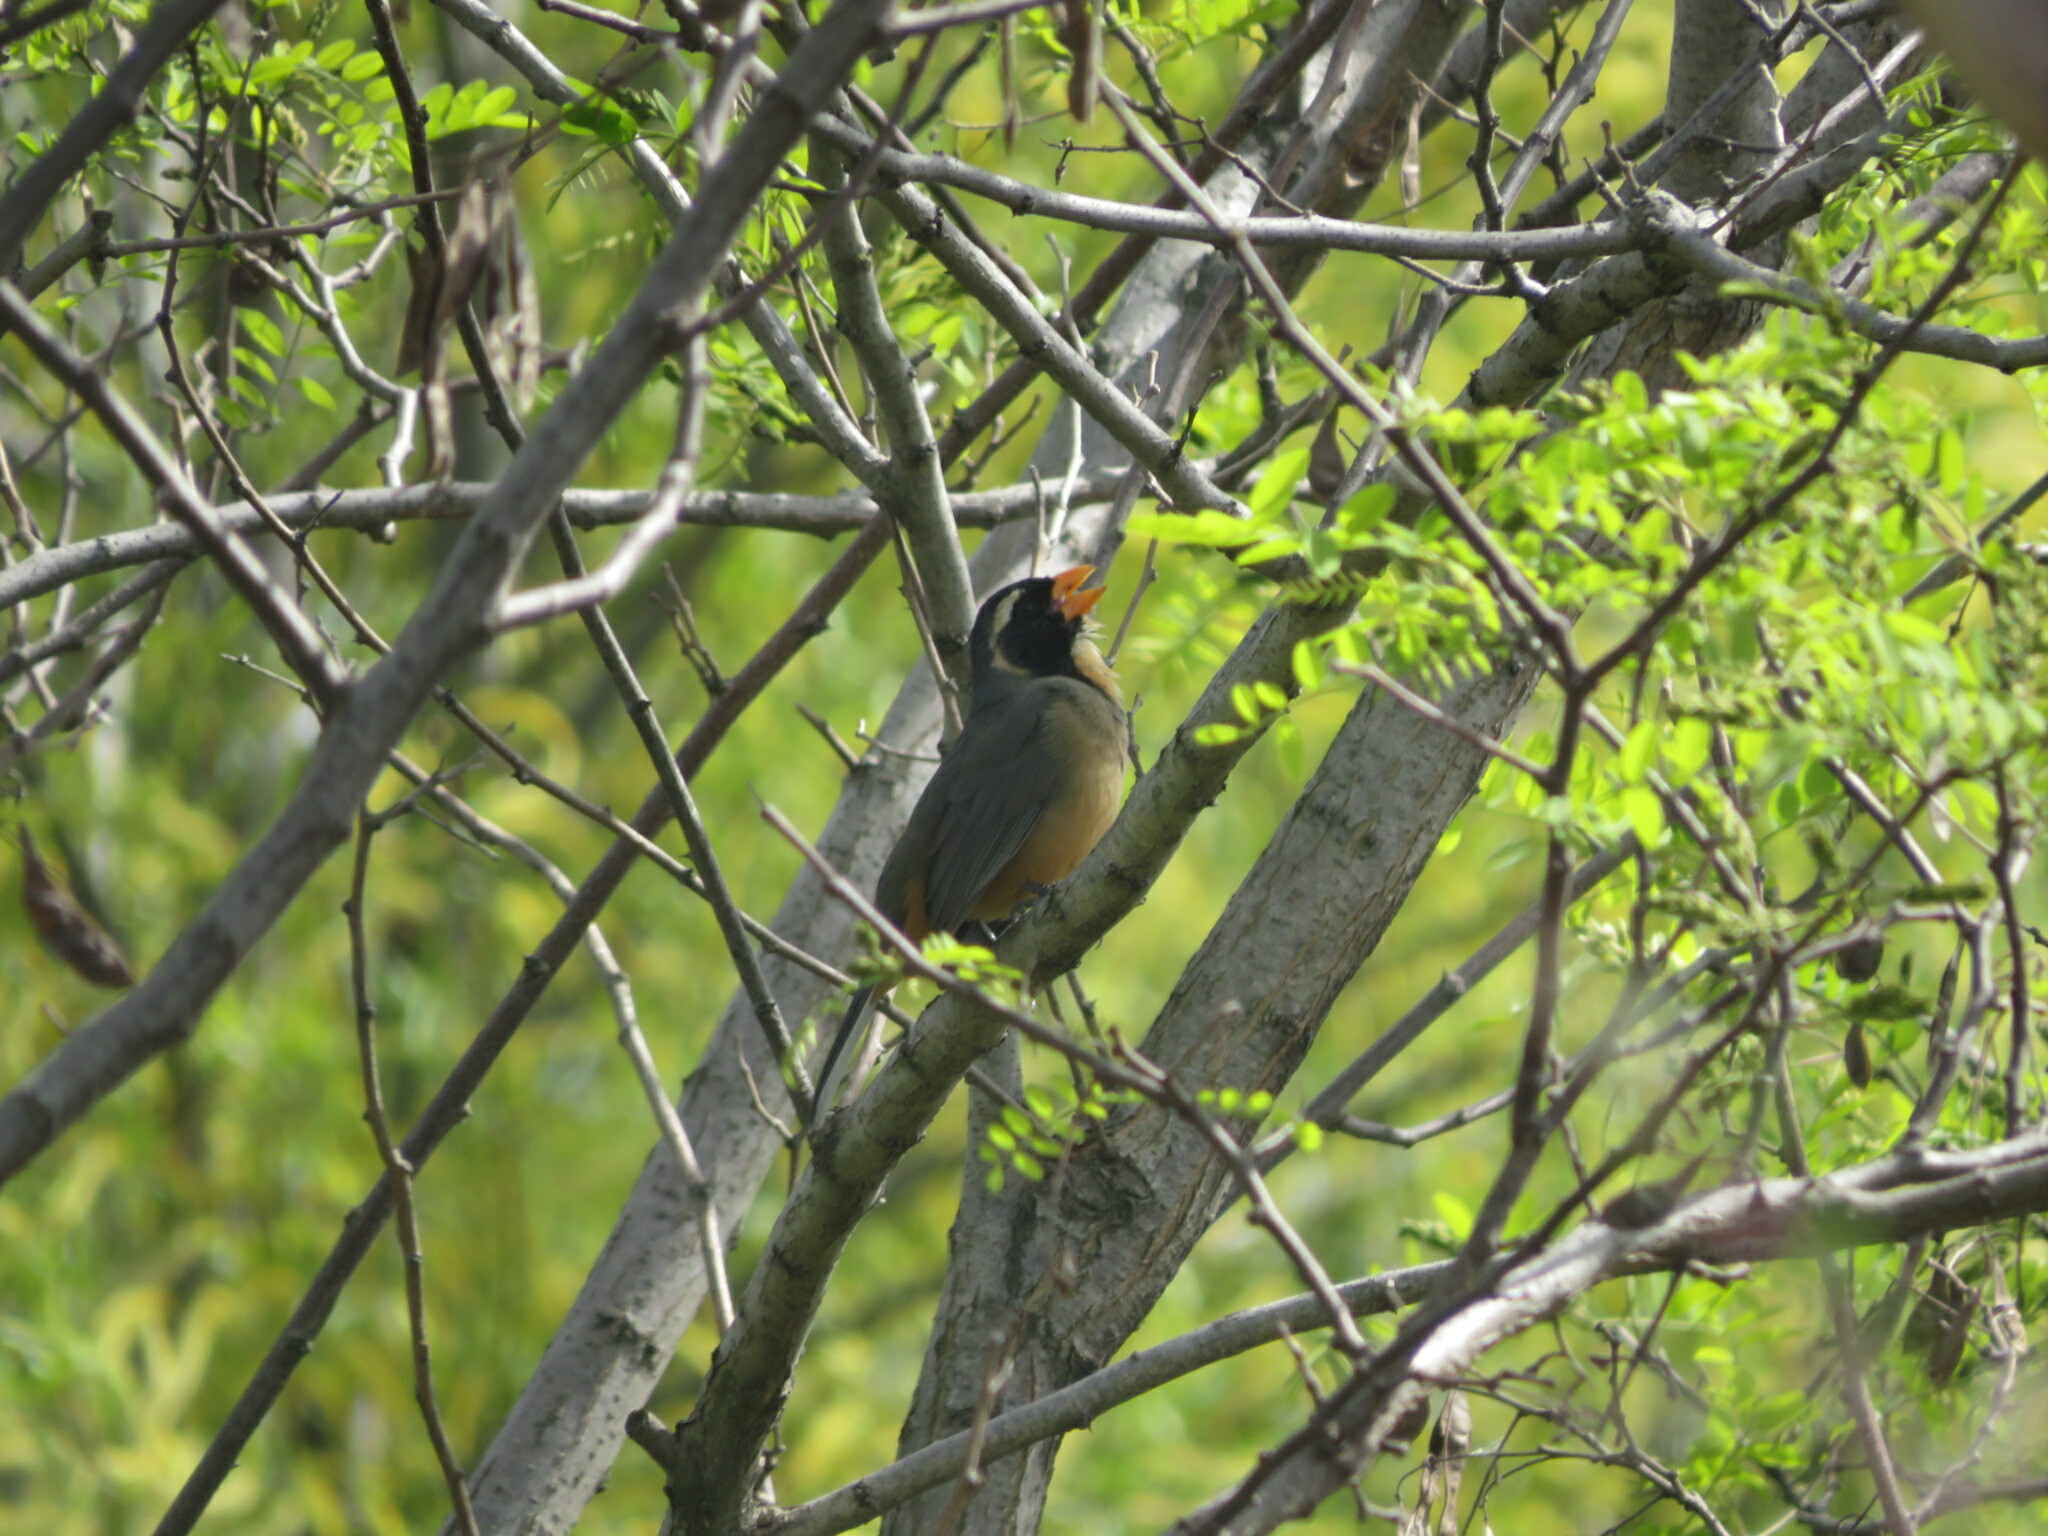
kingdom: Animalia
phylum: Chordata
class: Aves
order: Passeriformes
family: Thraupidae
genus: Saltator
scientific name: Saltator aurantiirostris
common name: Golden-billed saltator
